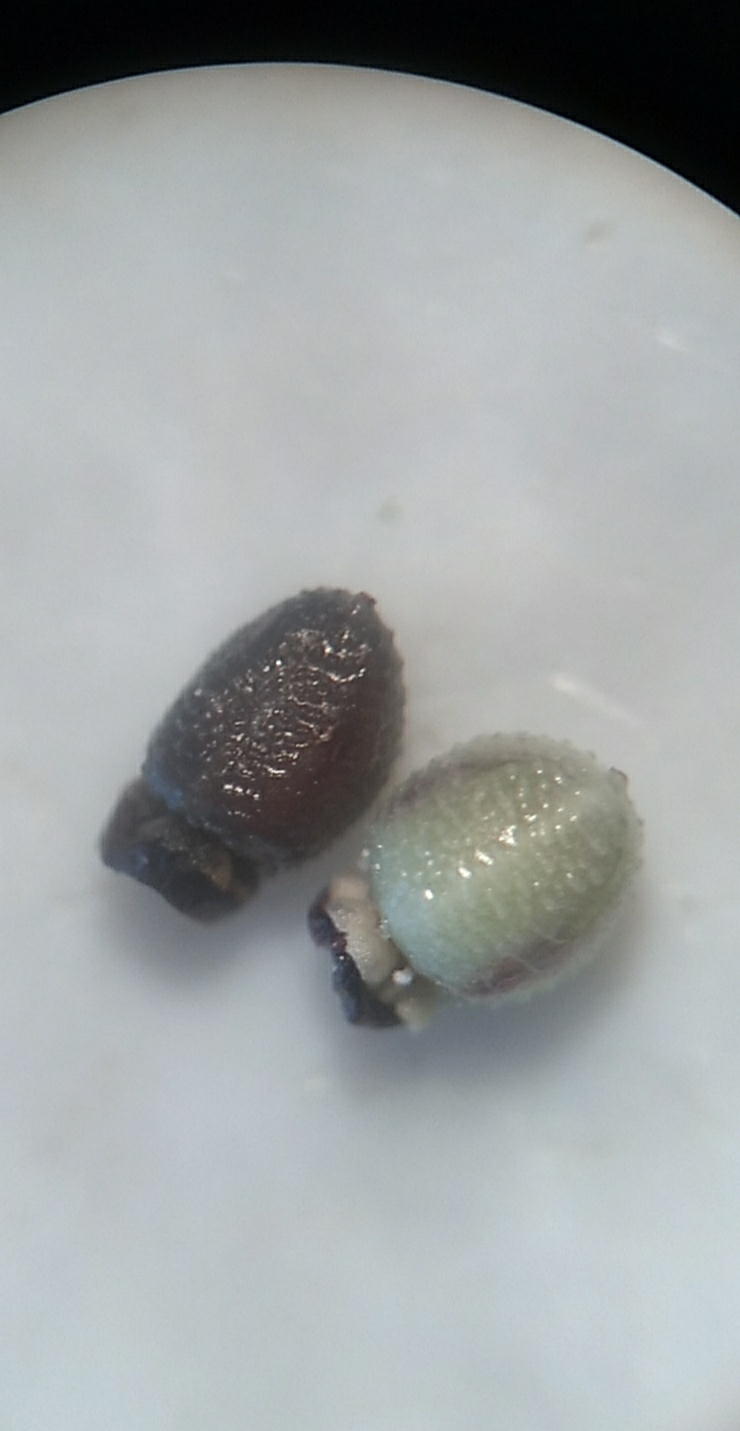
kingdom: Plantae
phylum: Tracheophyta
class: Liliopsida
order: Poales
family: Cyperaceae
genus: Scleria
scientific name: Scleria pauciflora
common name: Few-flowered nutrush
